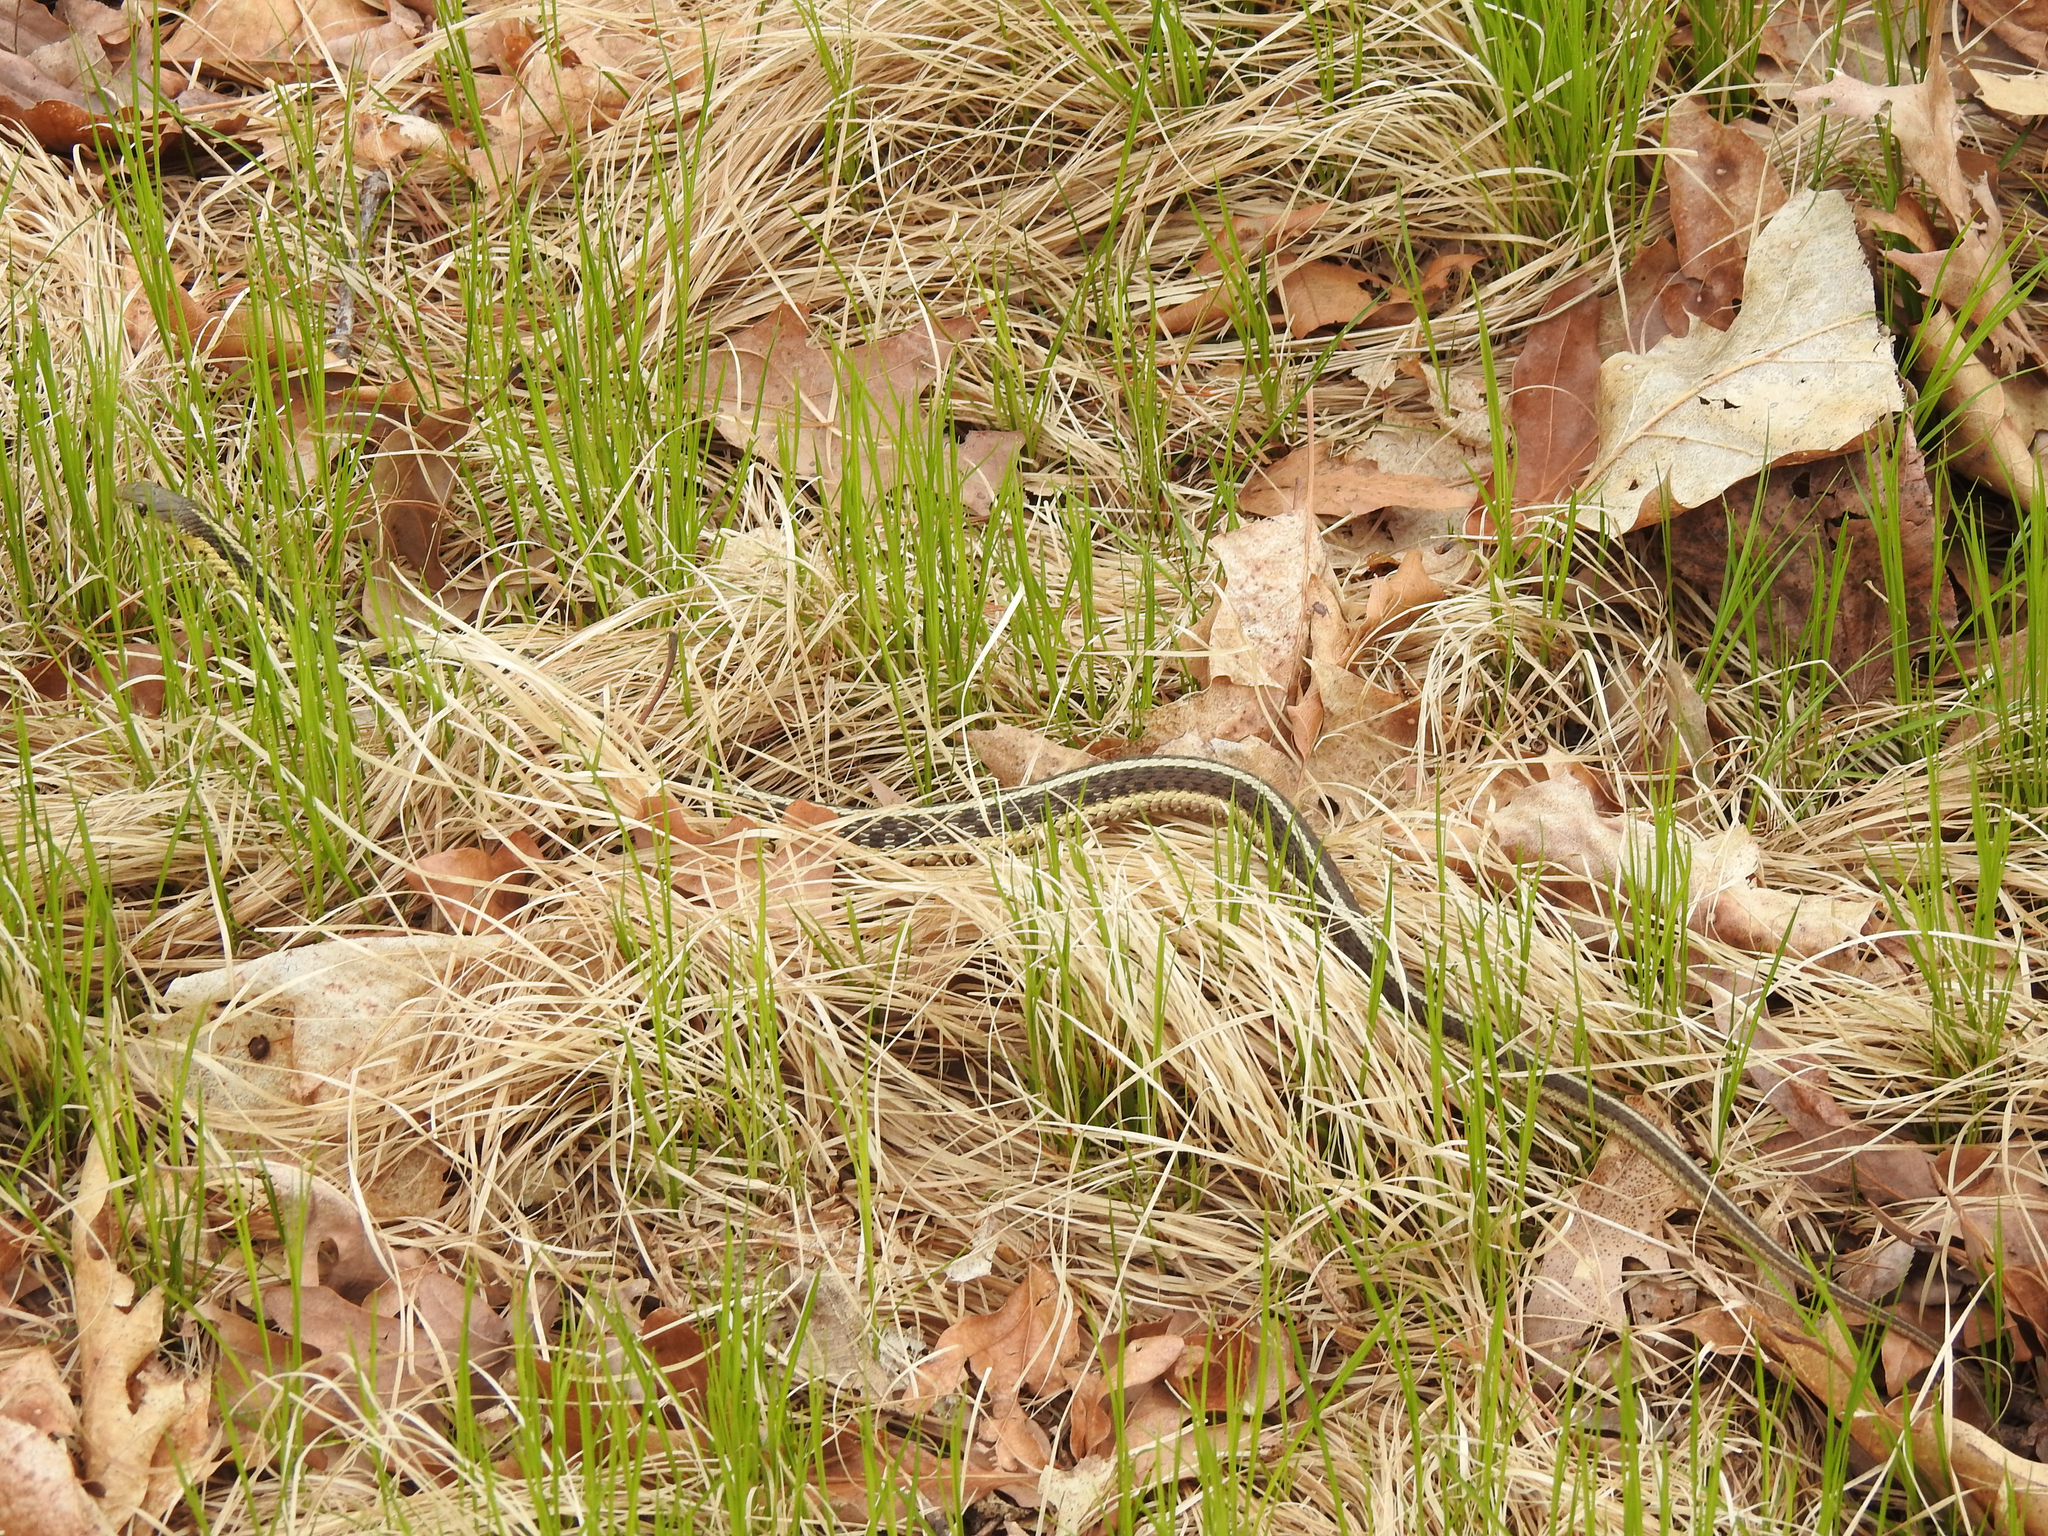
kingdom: Animalia
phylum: Chordata
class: Squamata
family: Colubridae
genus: Thamnophis
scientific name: Thamnophis sirtalis
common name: Common garter snake
